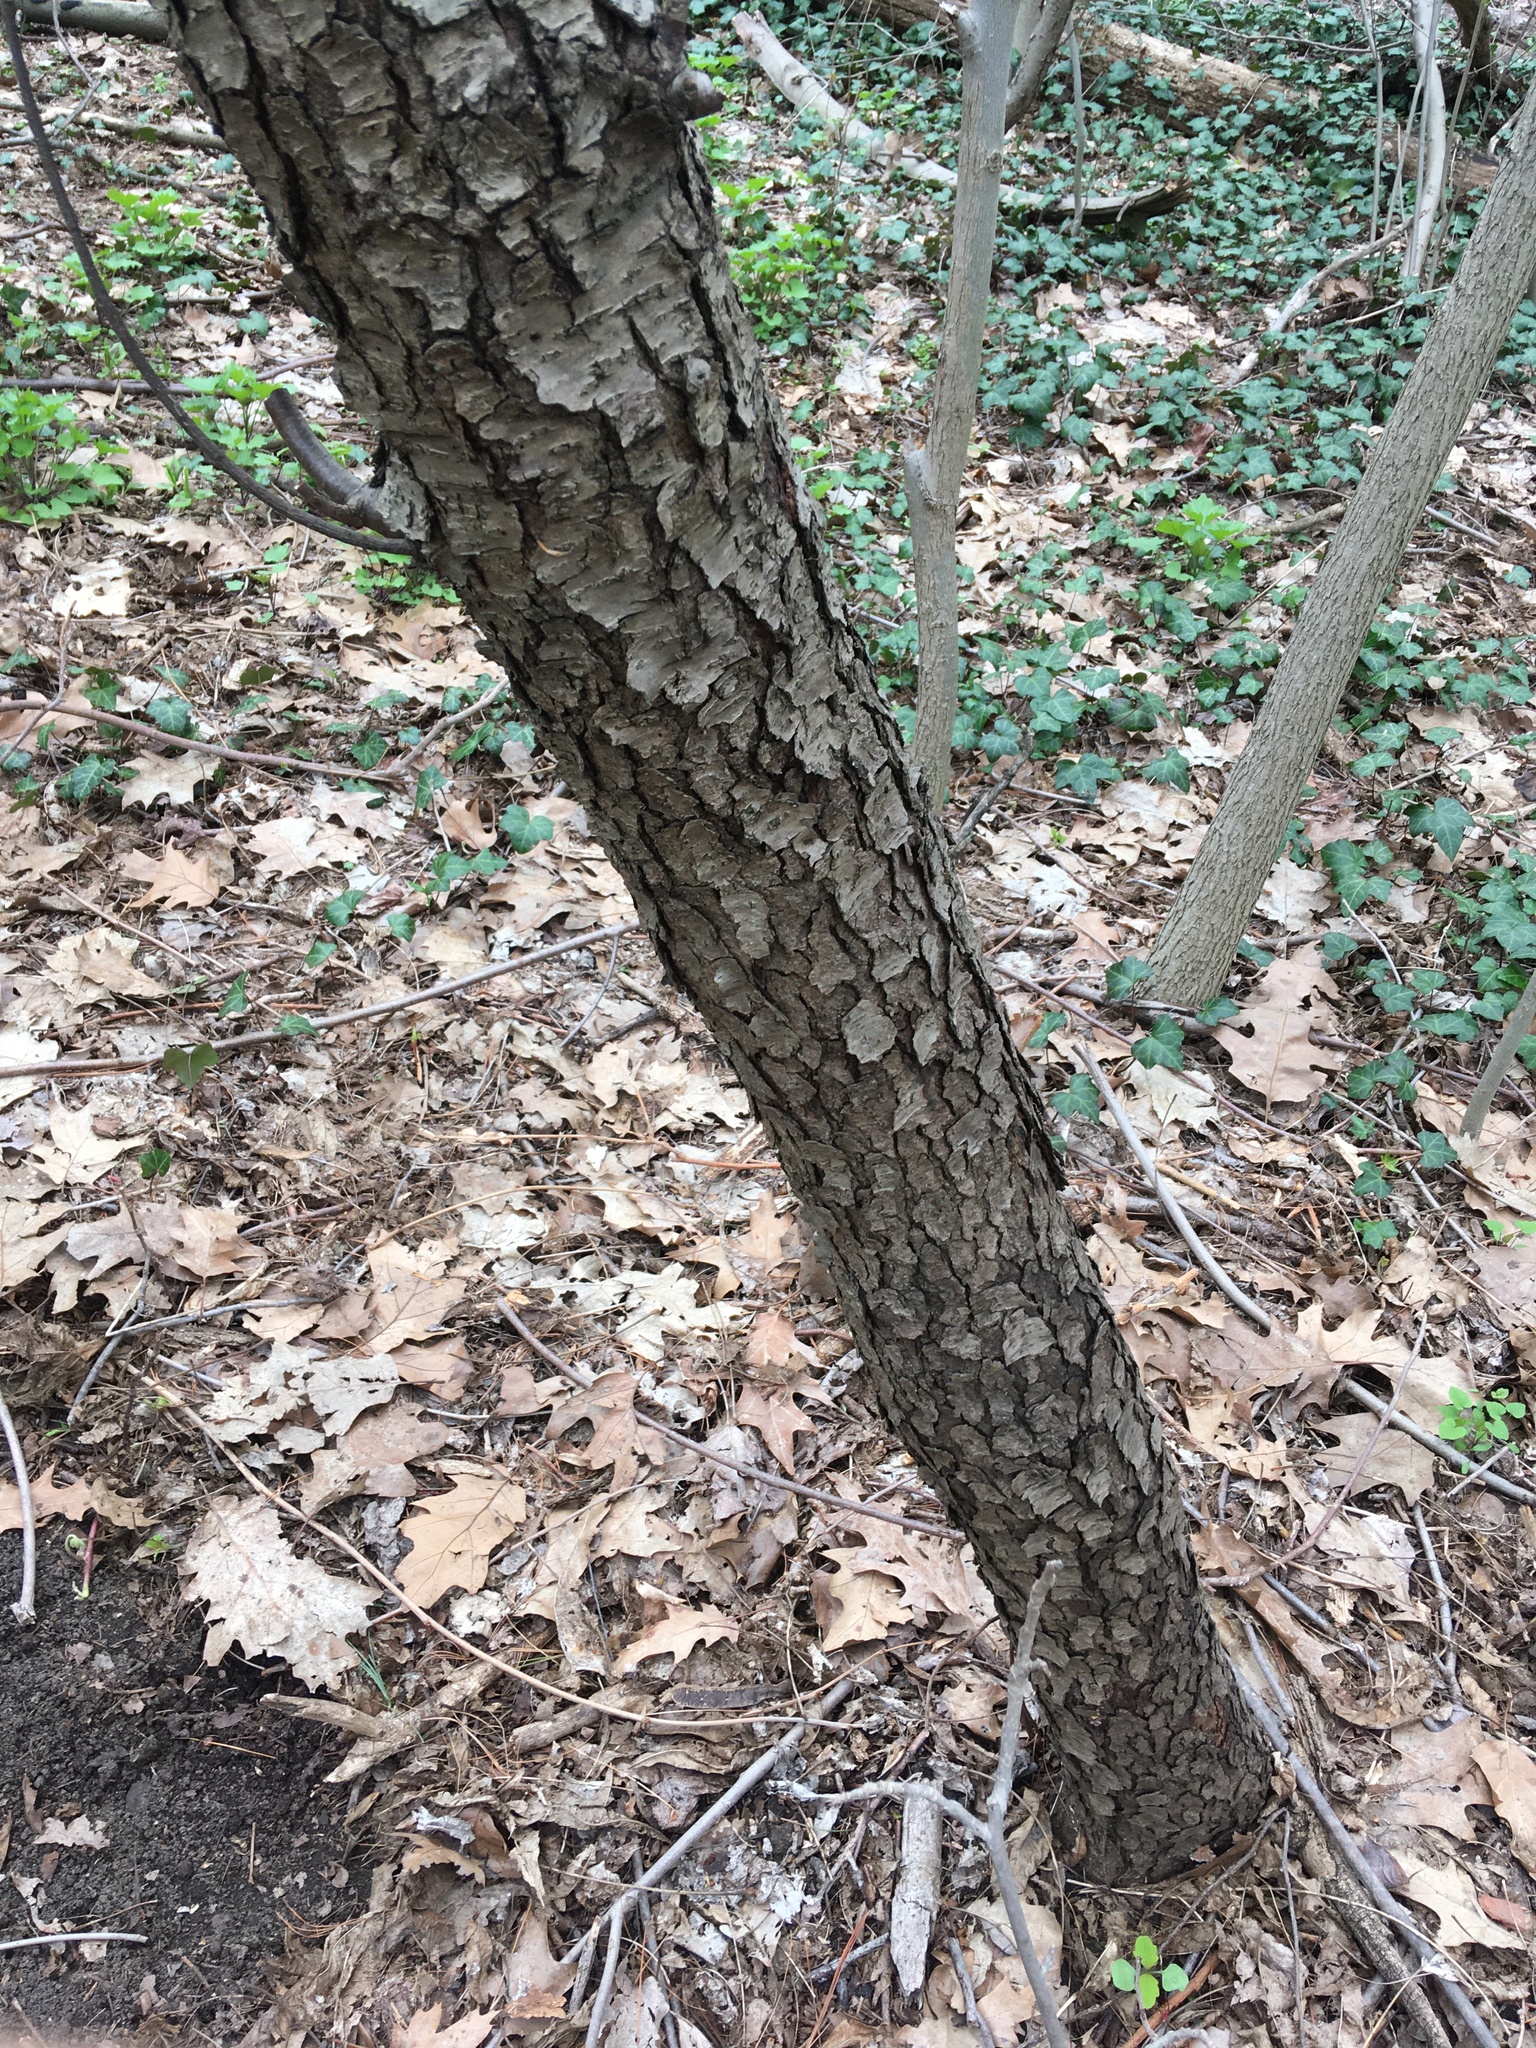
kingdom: Plantae
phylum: Tracheophyta
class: Magnoliopsida
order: Rosales
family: Rosaceae
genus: Prunus
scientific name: Prunus serotina
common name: Black cherry
